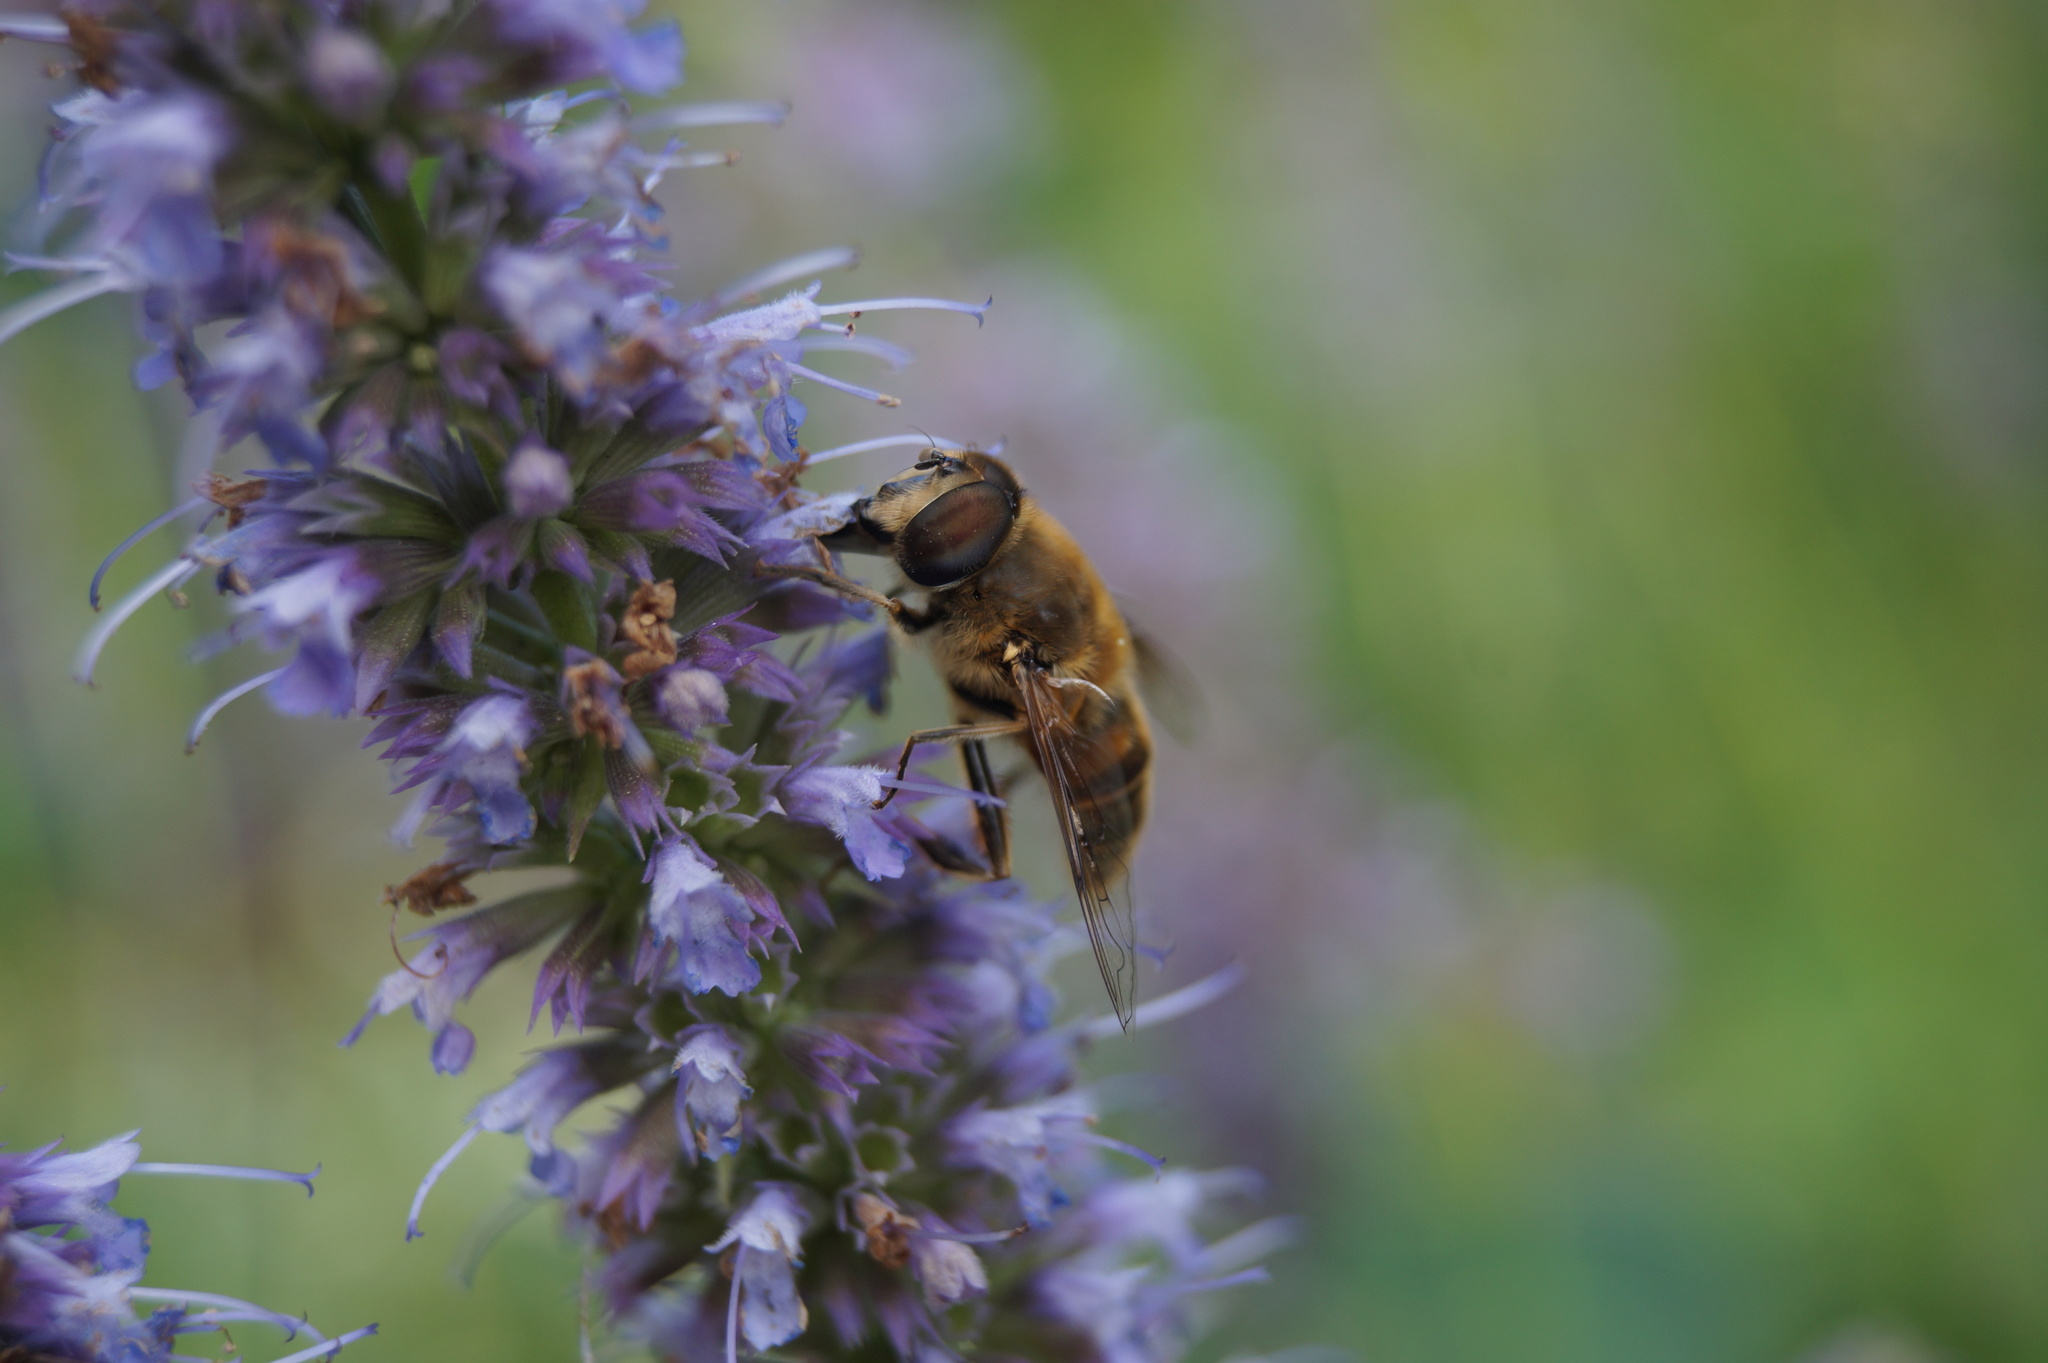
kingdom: Animalia
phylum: Arthropoda
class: Insecta
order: Diptera
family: Syrphidae
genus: Eristalis
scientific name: Eristalis tenax
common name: Drone fly
